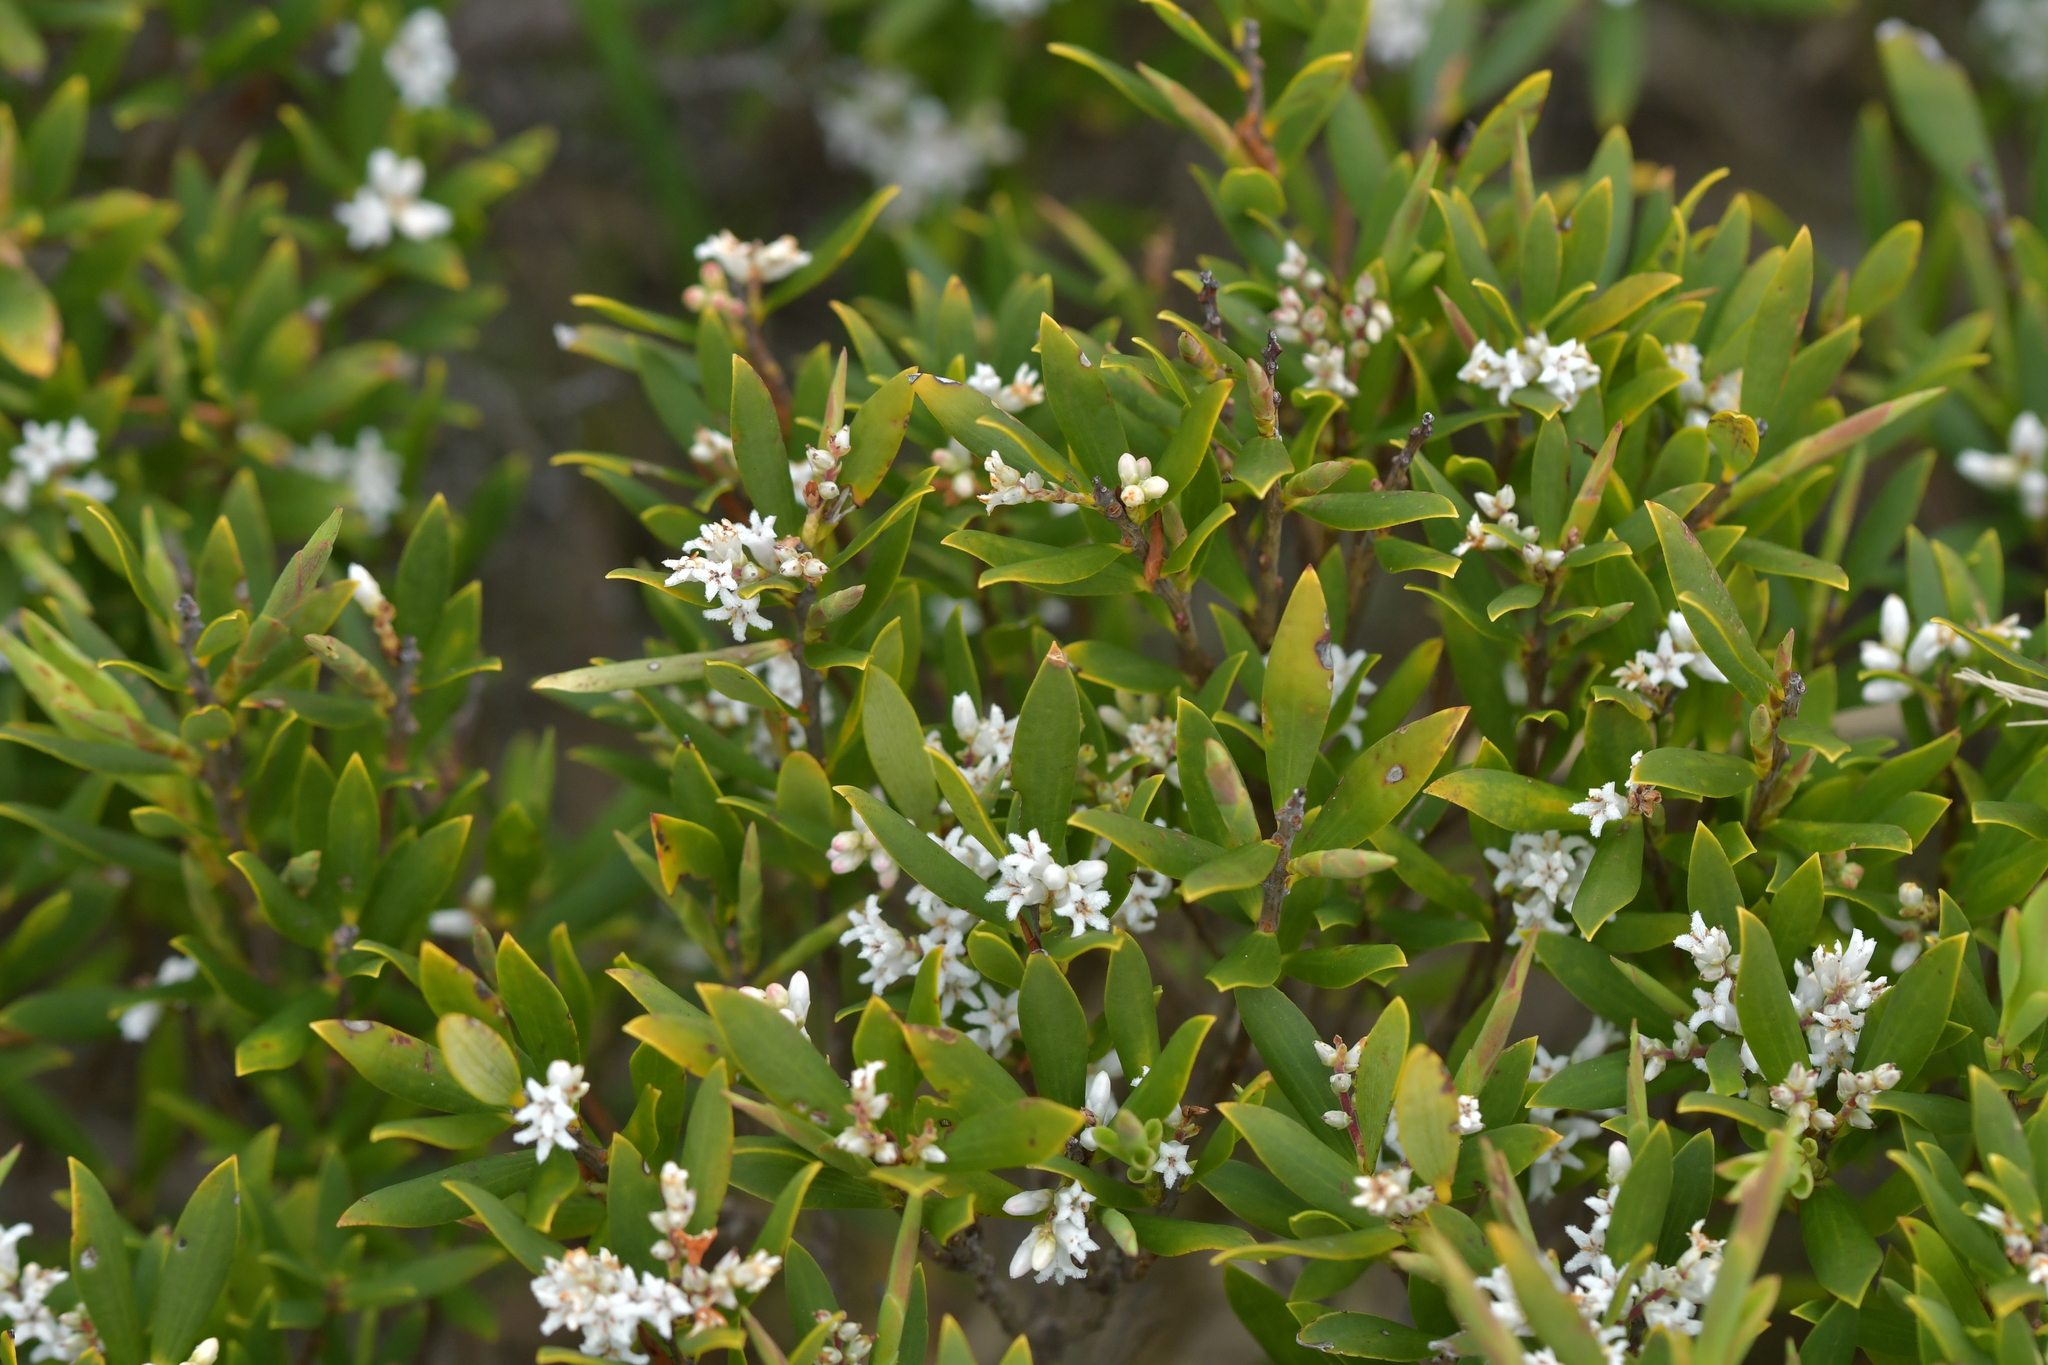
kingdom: Plantae
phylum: Tracheophyta
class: Magnoliopsida
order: Ericales
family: Ericaceae
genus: Leptecophylla
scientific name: Leptecophylla parvifolia
